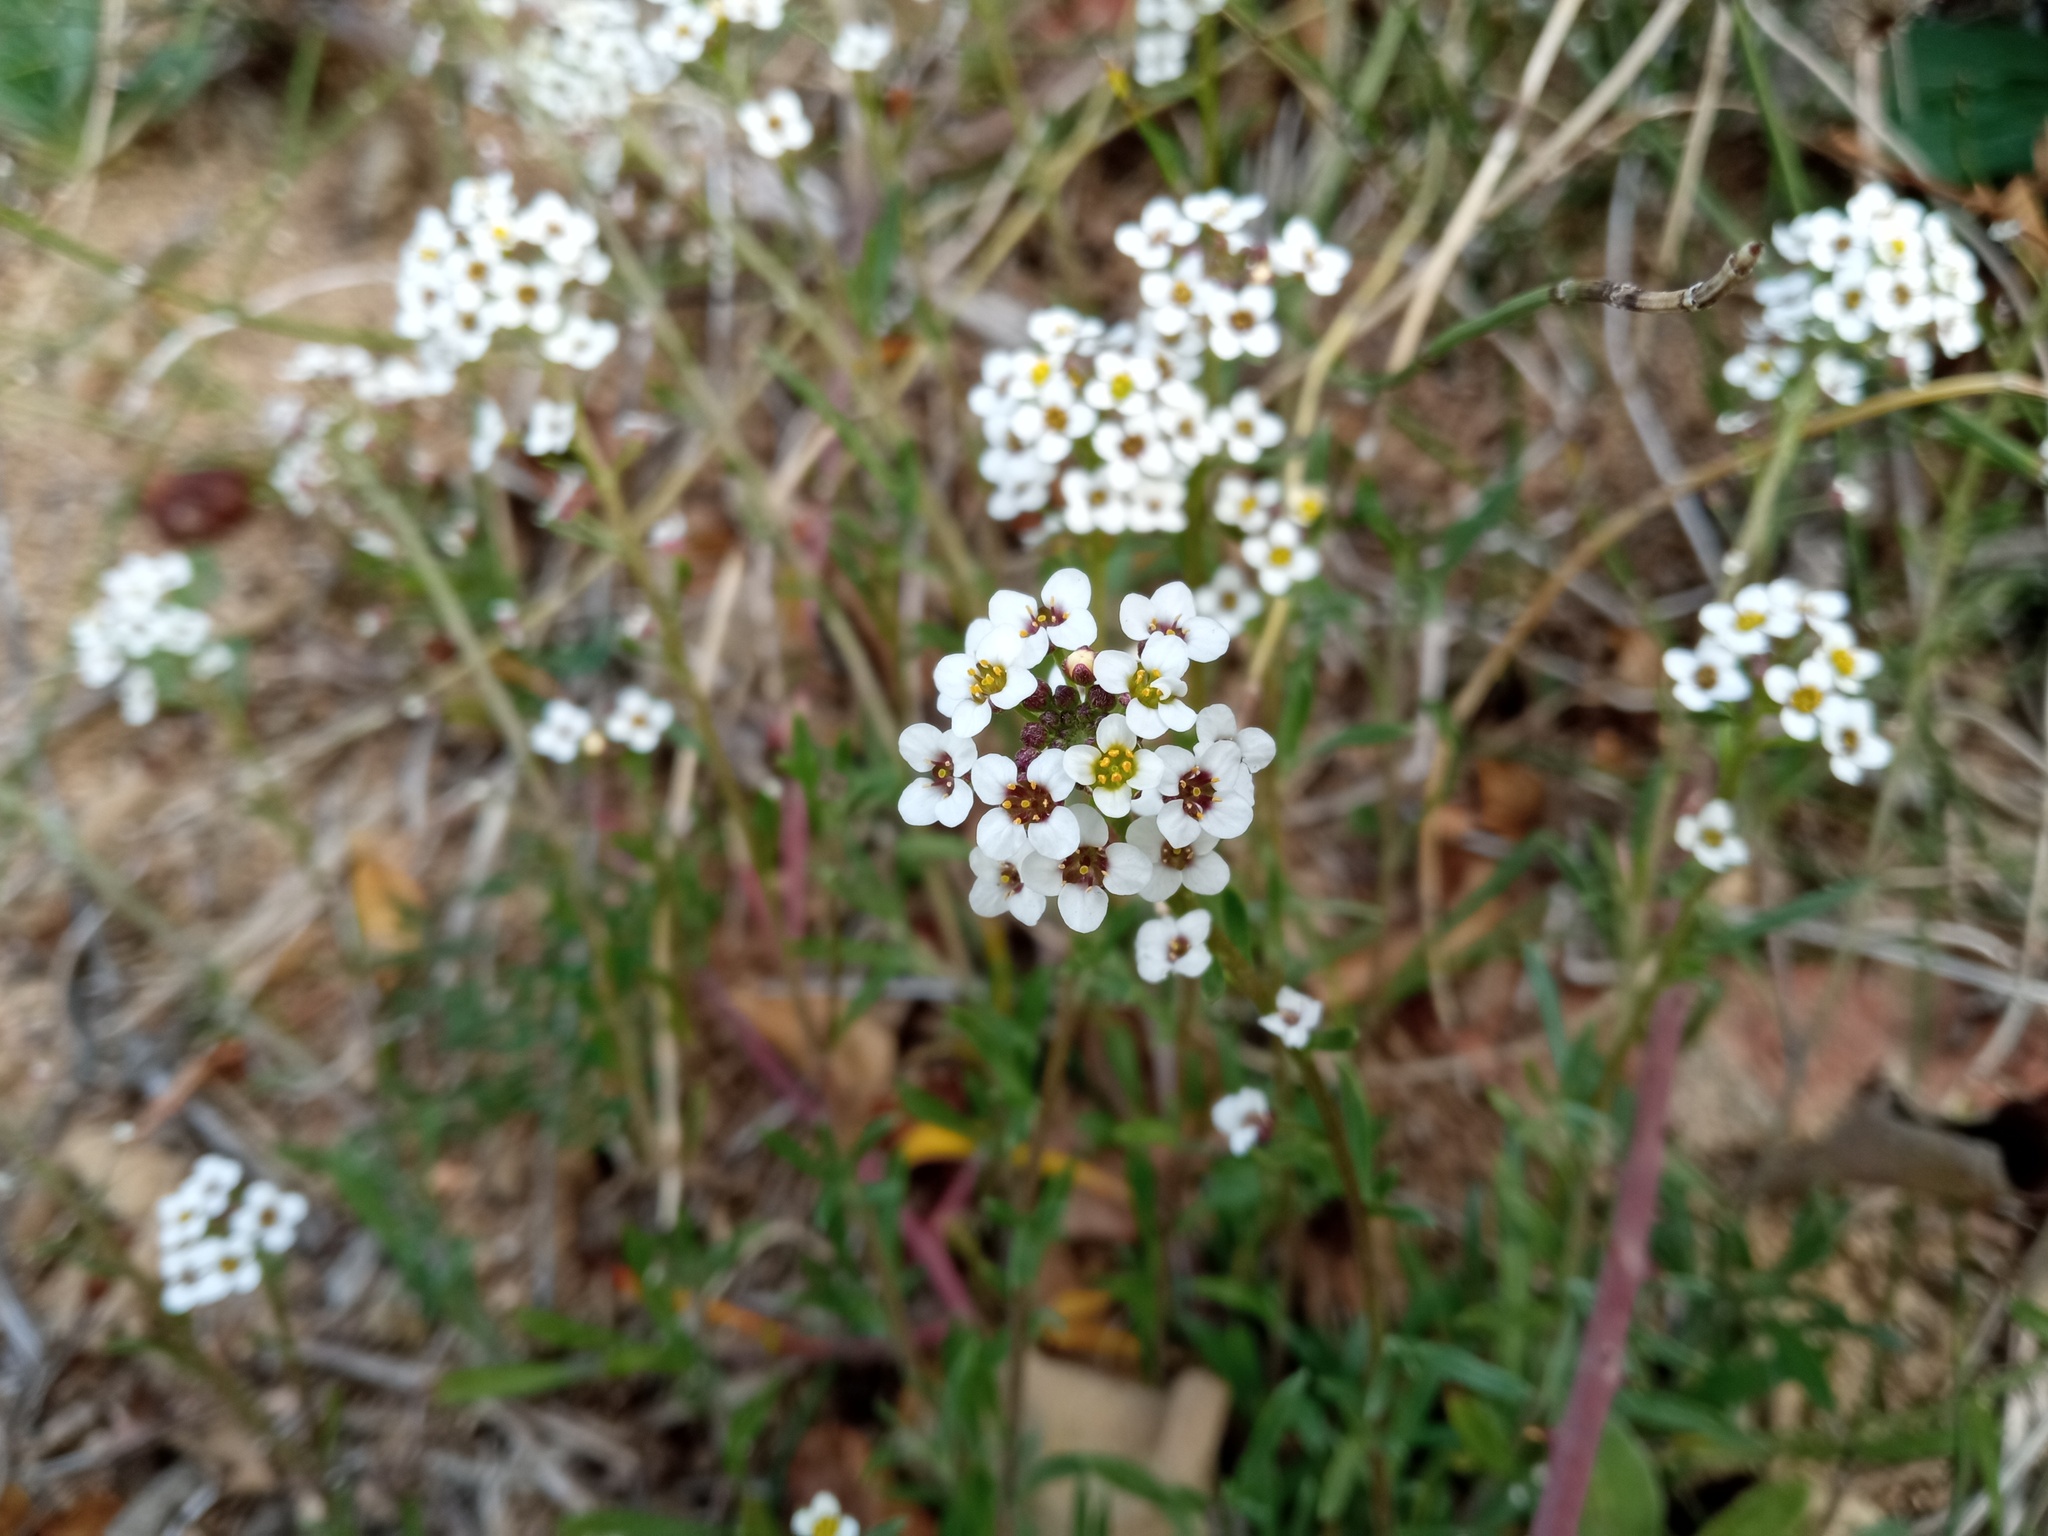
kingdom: Plantae
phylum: Tracheophyta
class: Magnoliopsida
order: Brassicales
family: Brassicaceae
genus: Lobularia
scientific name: Lobularia maritima
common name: Sweet alison
